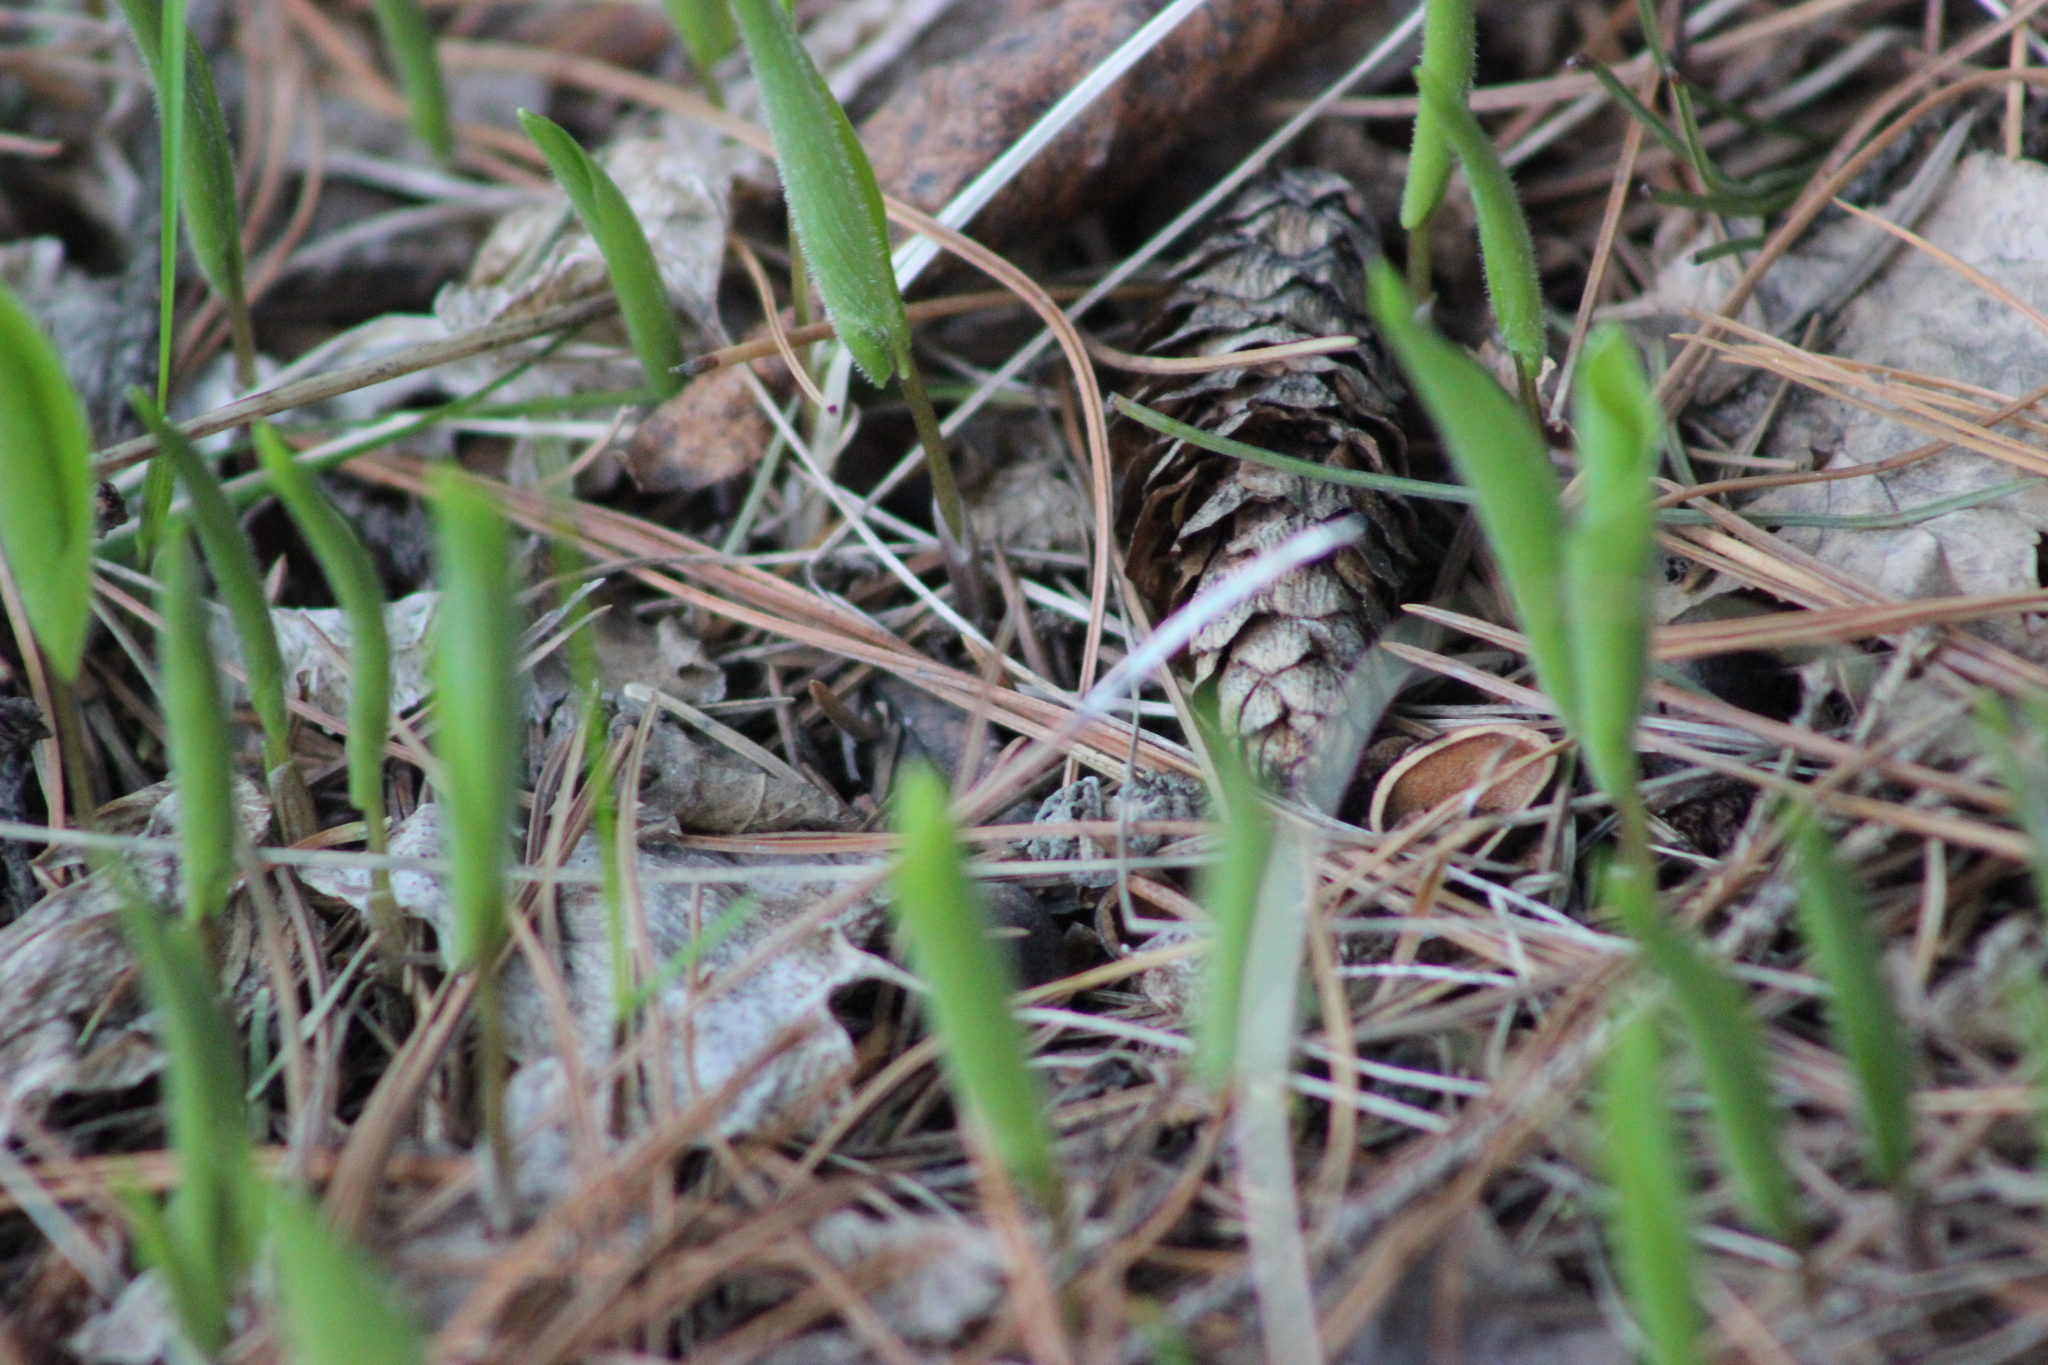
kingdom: Plantae
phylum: Tracheophyta
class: Liliopsida
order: Asparagales
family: Asparagaceae
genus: Maianthemum
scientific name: Maianthemum bifolium
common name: May lily
